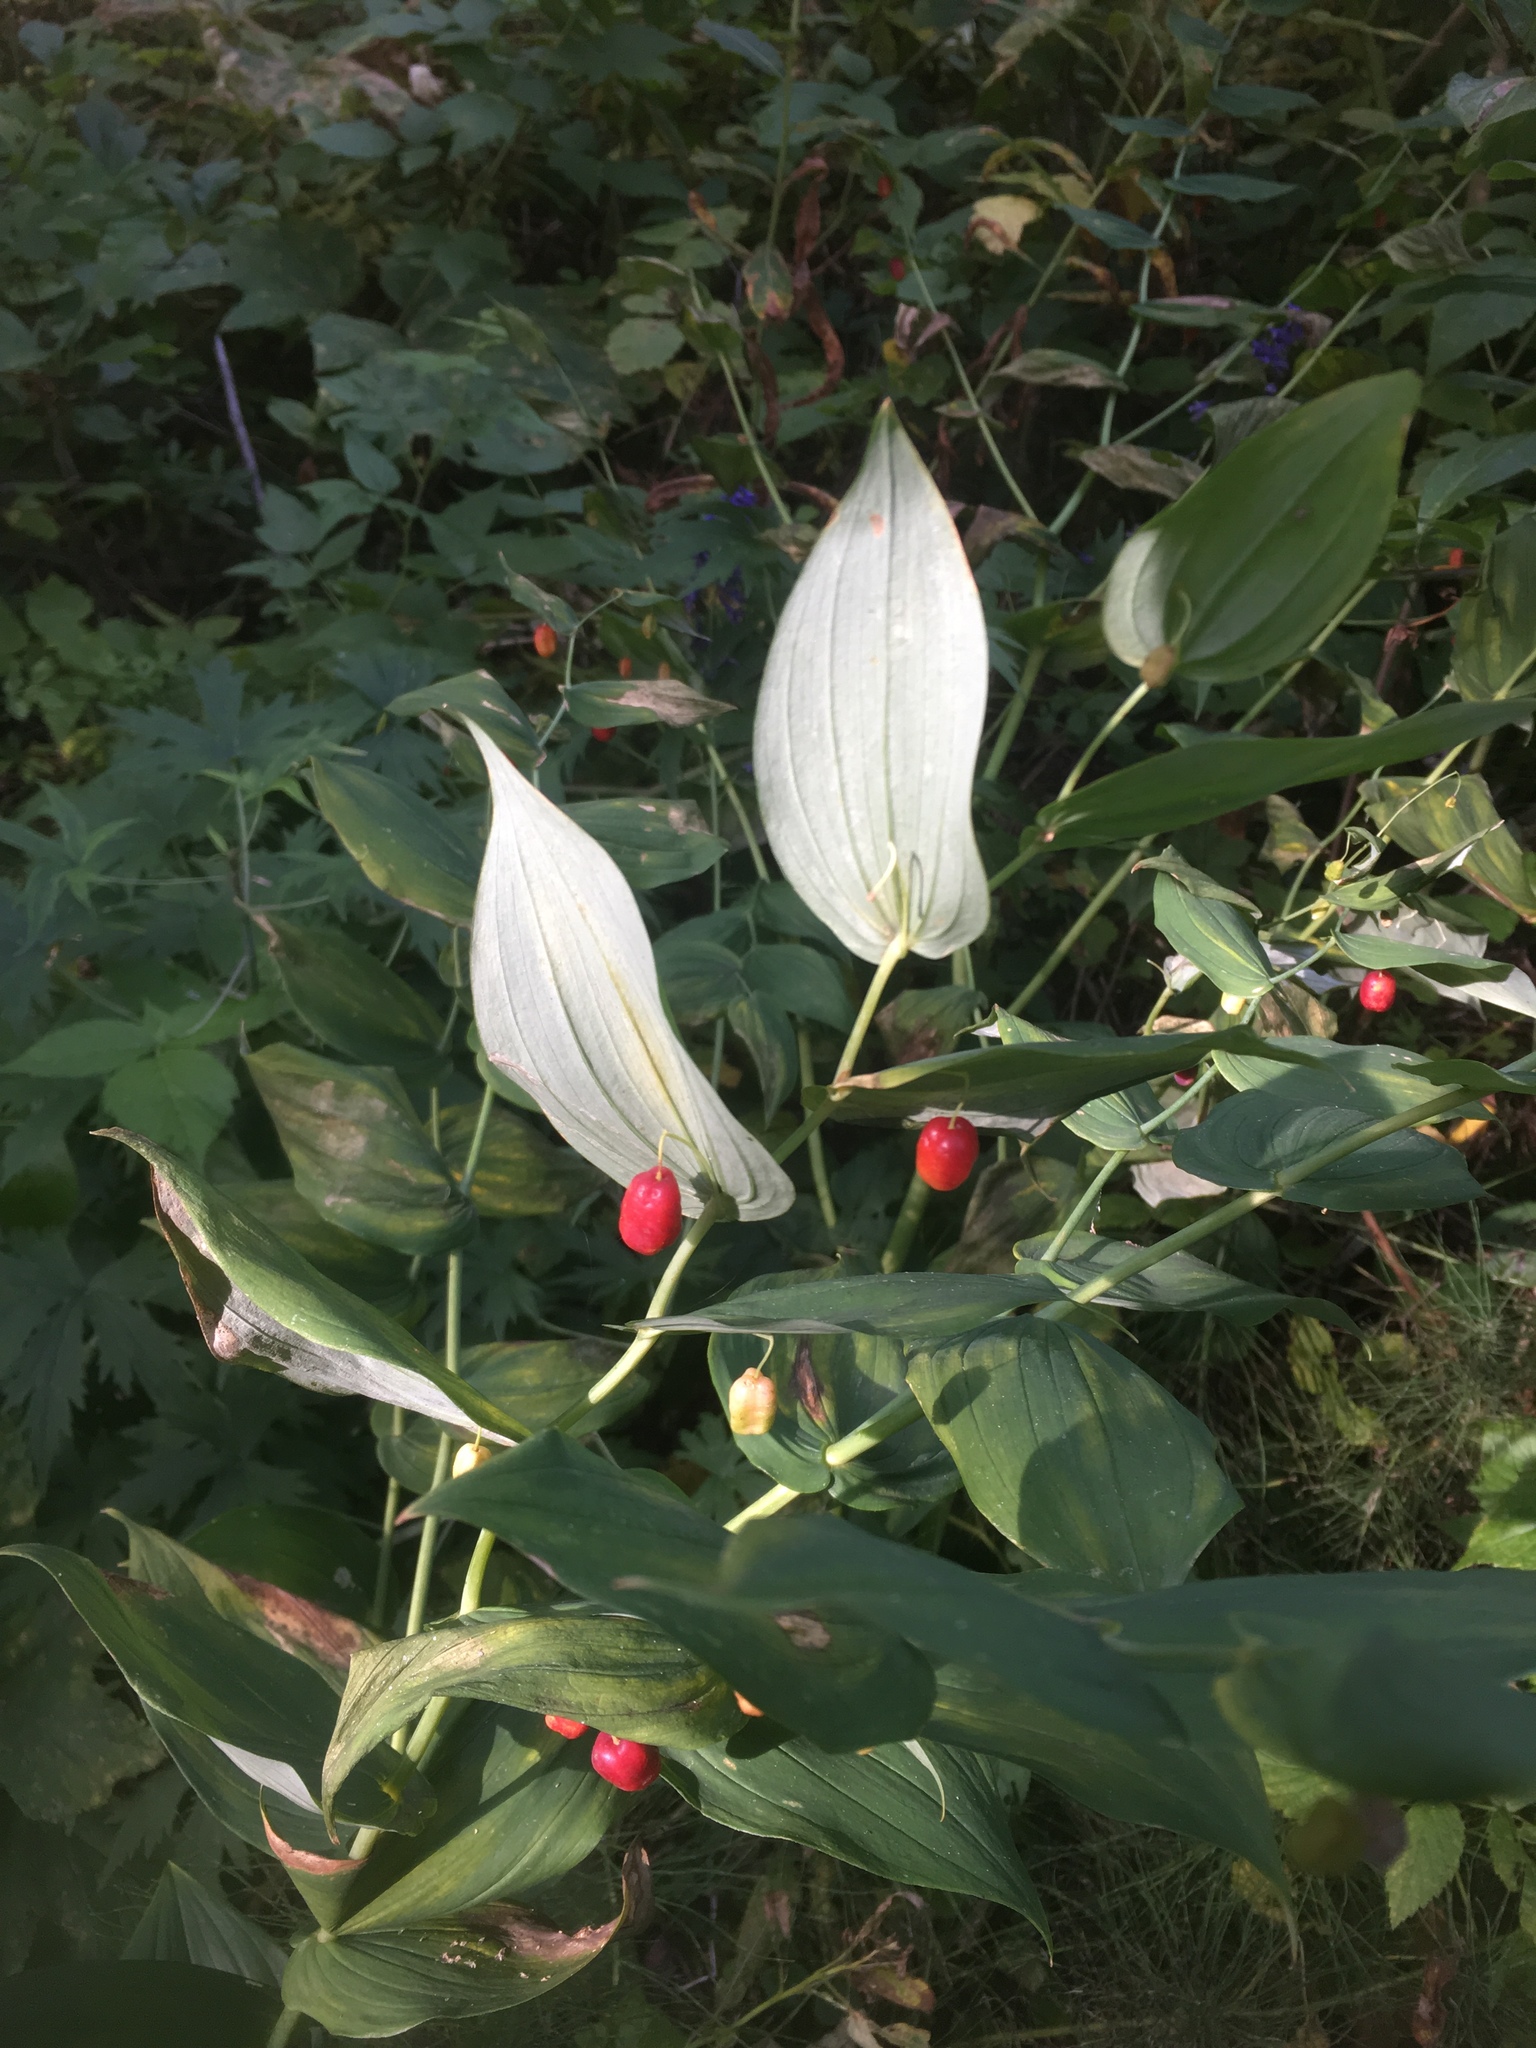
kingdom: Plantae
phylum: Tracheophyta
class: Liliopsida
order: Liliales
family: Liliaceae
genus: Streptopus
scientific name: Streptopus amplexifolius
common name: Clasp twisted stalk
